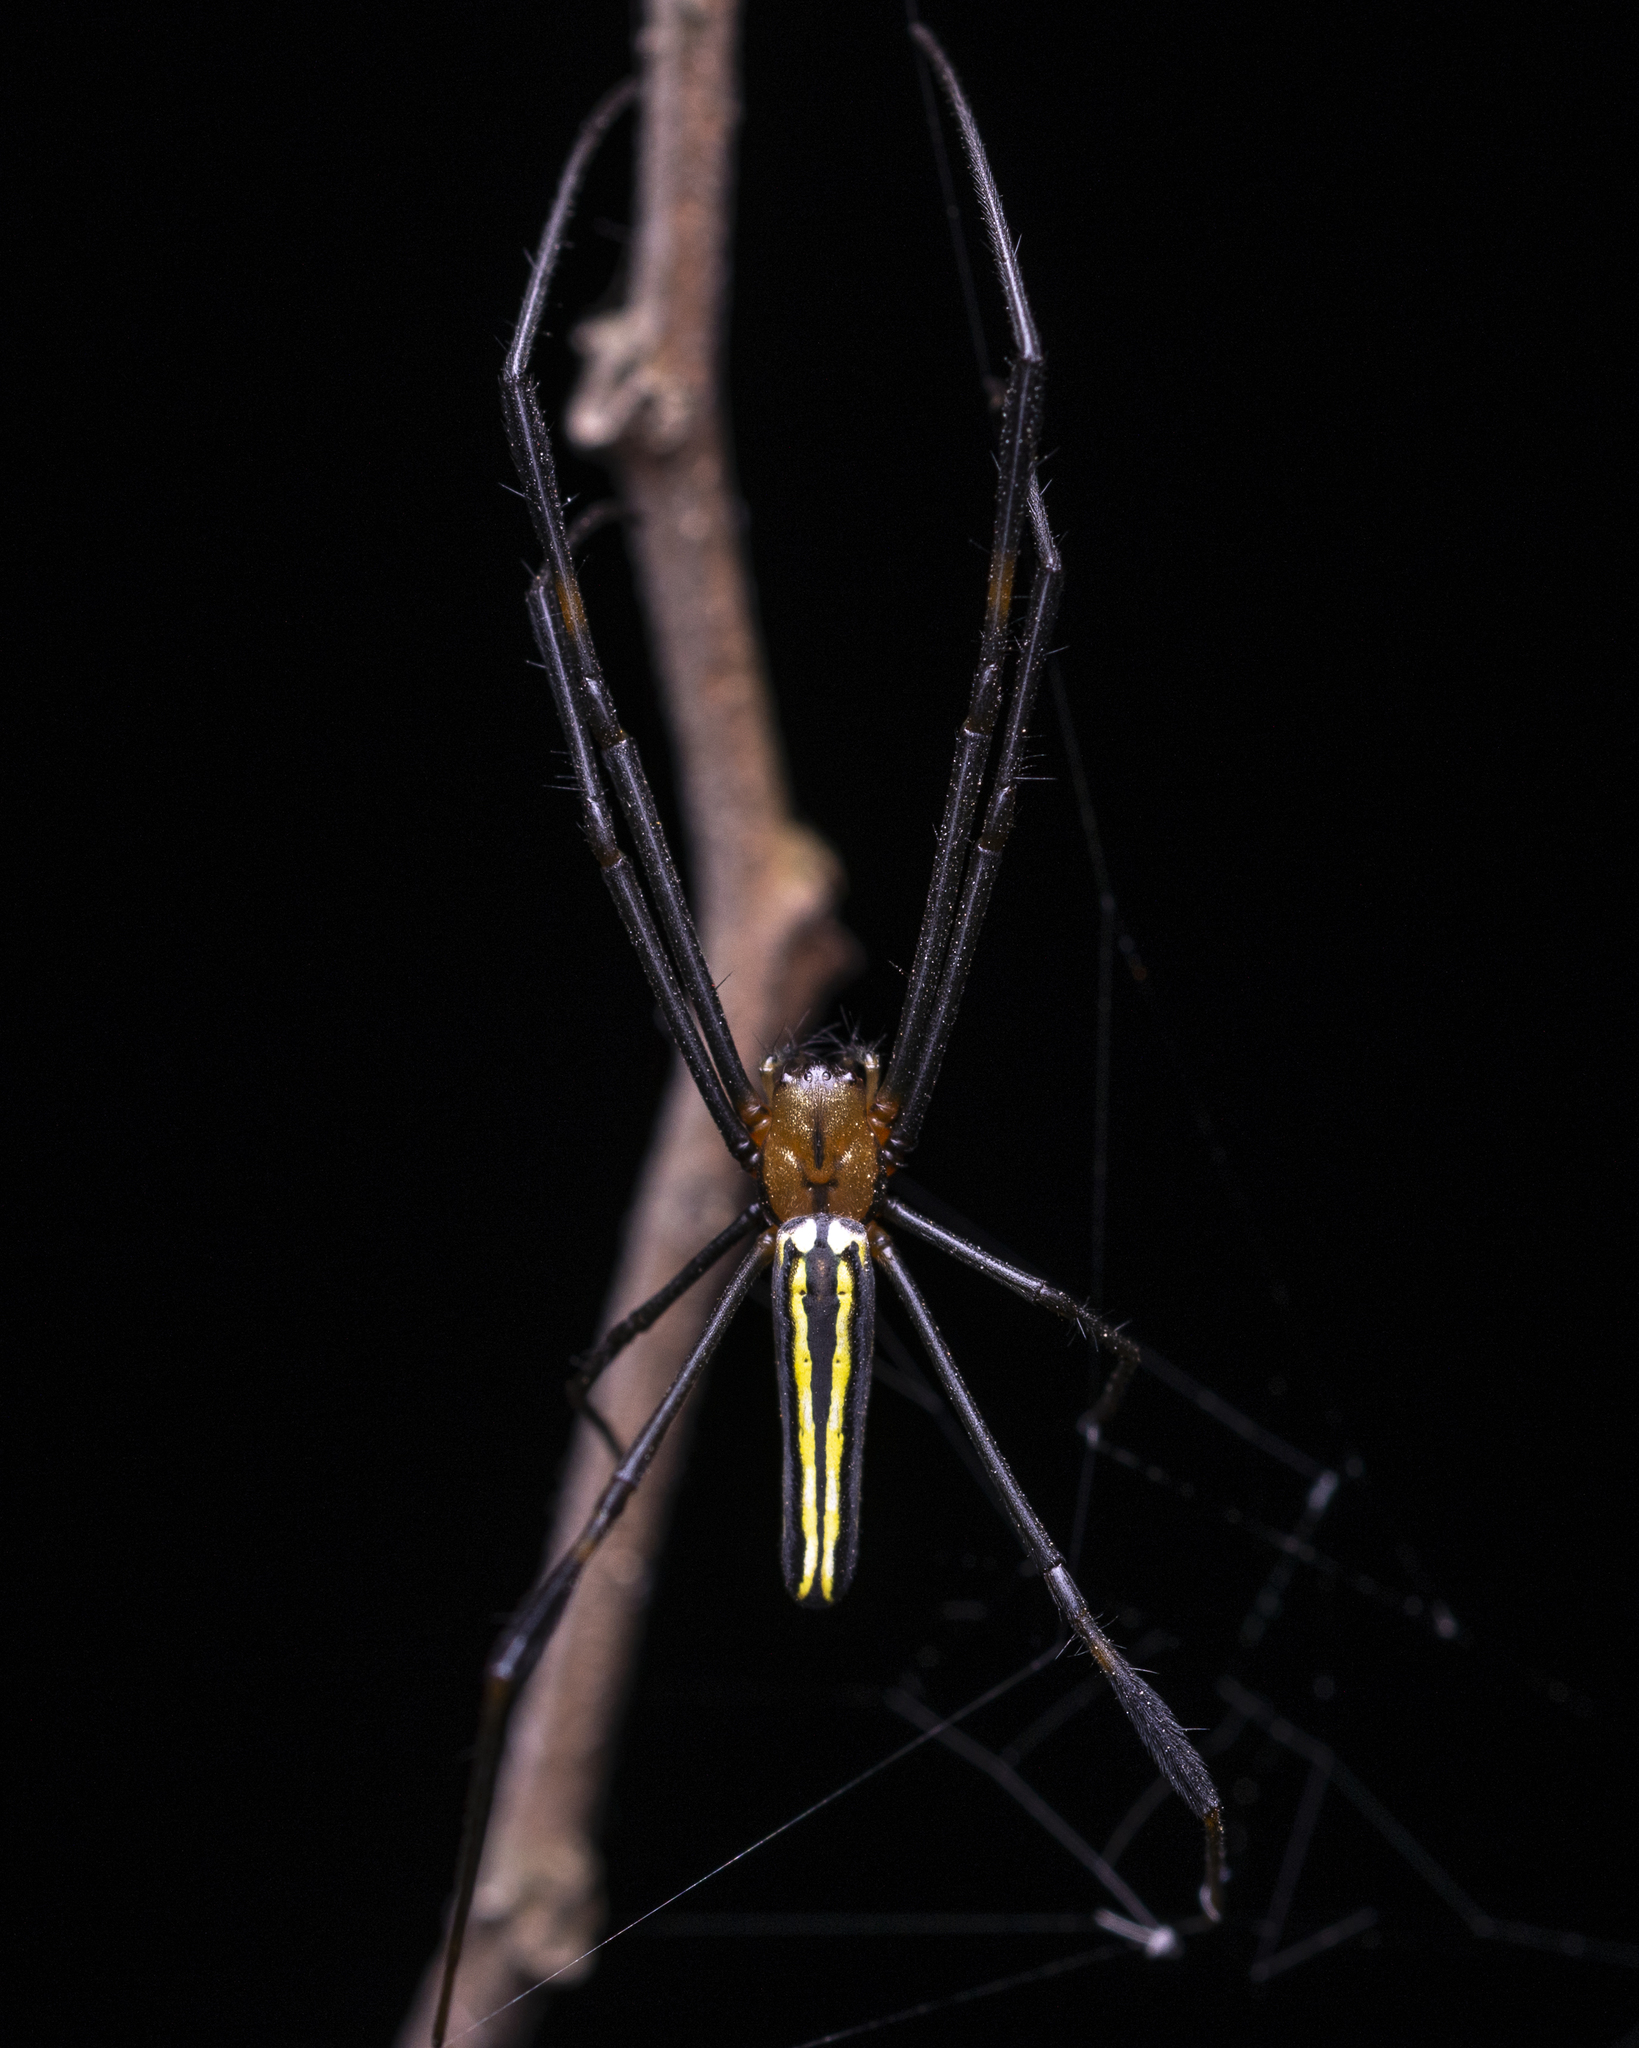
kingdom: Animalia
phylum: Arthropoda
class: Arachnida
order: Araneae
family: Araneidae
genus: Nephila
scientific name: Nephila pilipes
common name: Giant golden orb weaver
